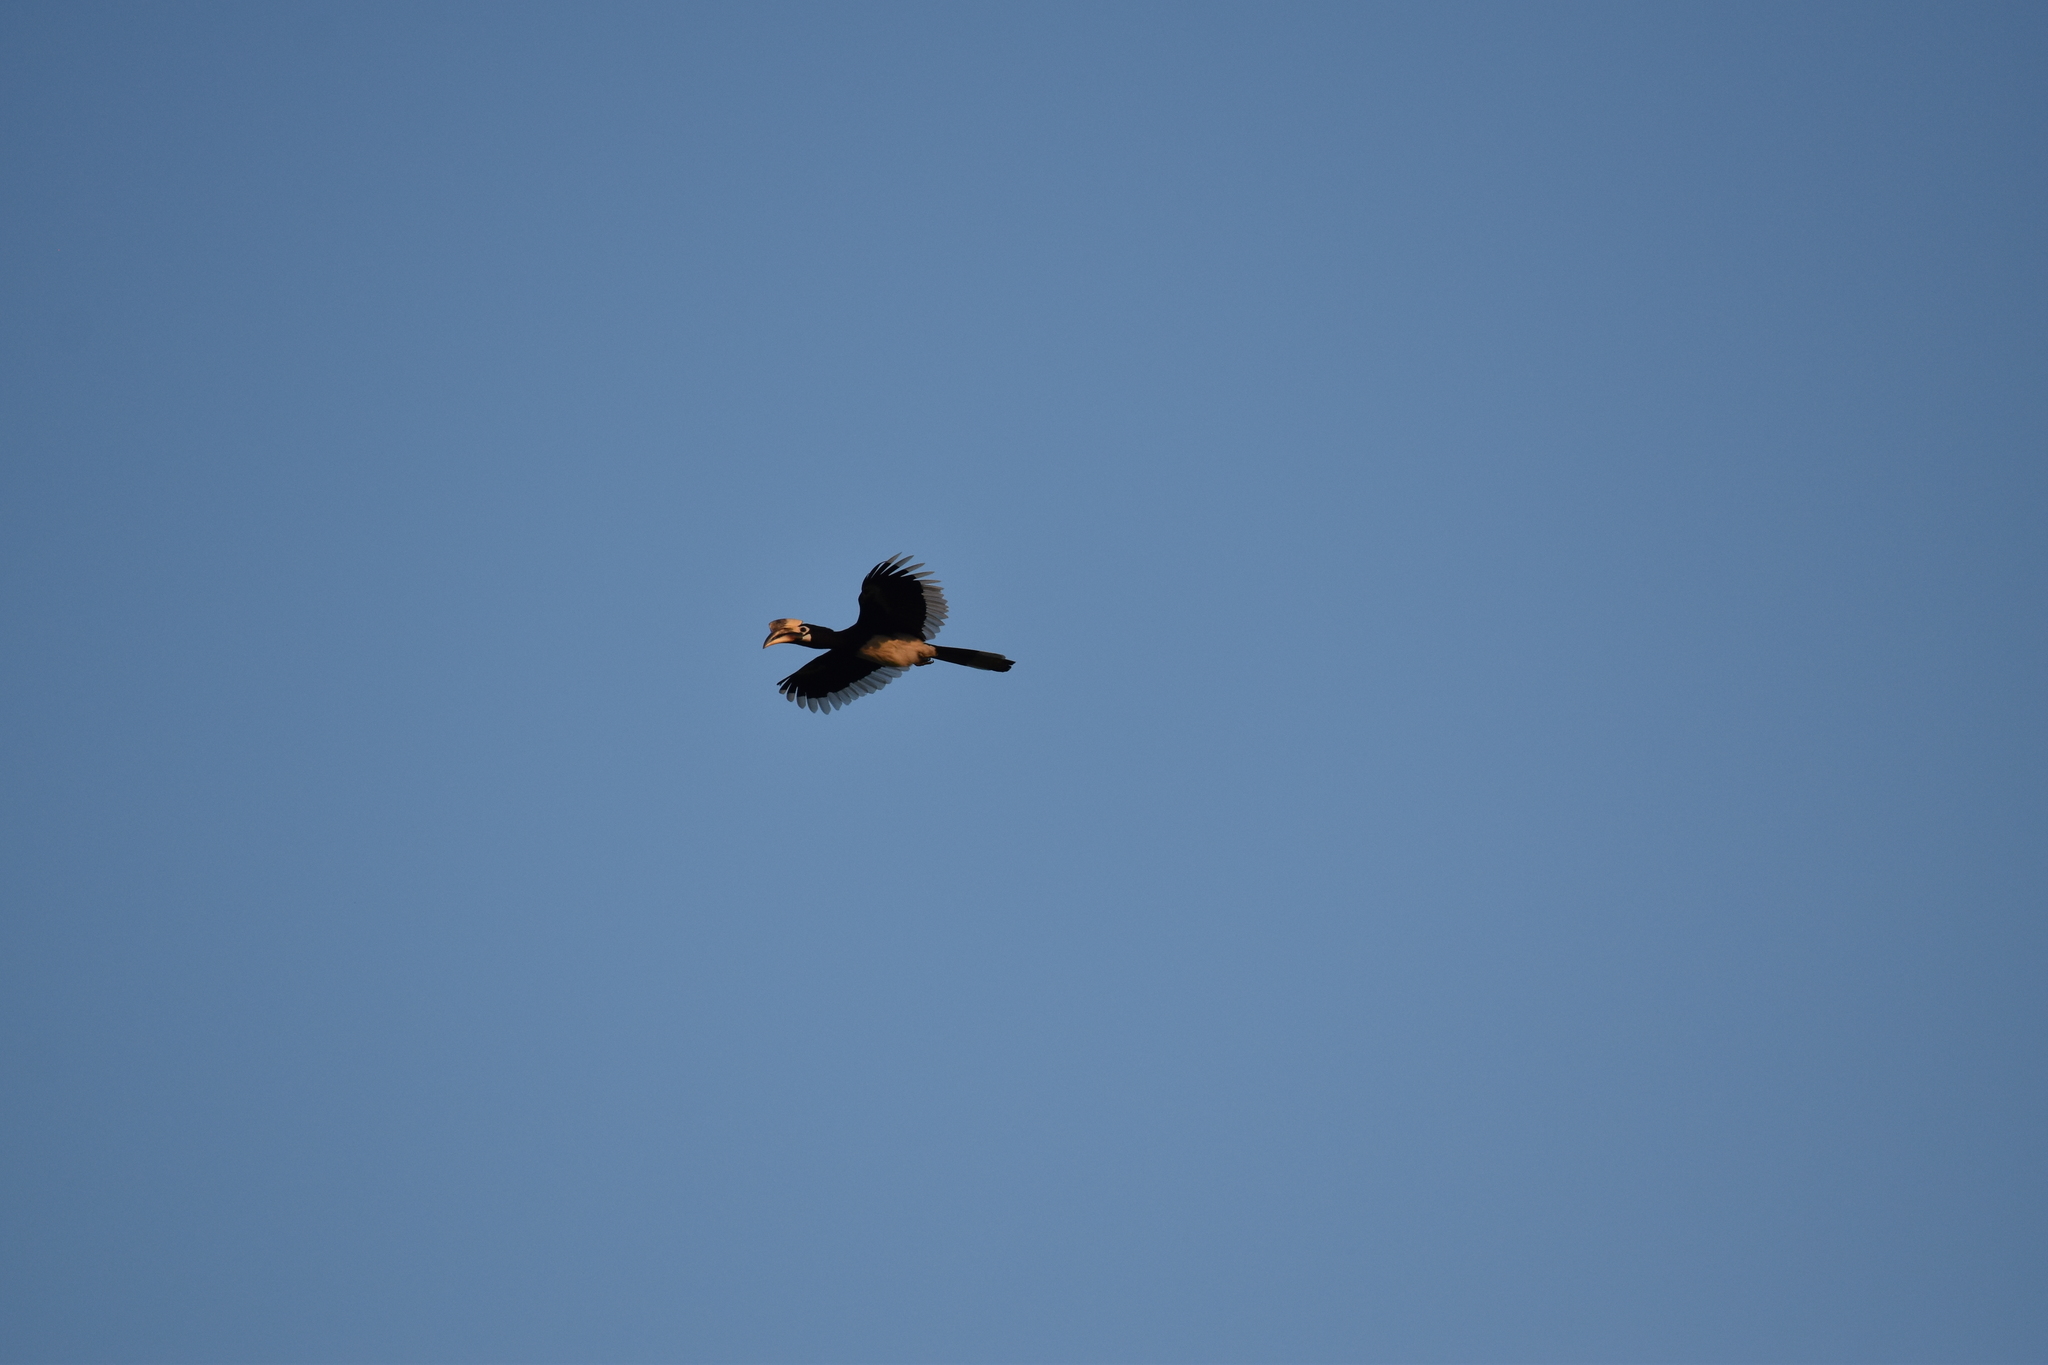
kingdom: Animalia
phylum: Chordata
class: Aves
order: Bucerotiformes
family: Bucerotidae
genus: Anthracoceros
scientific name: Anthracoceros albirostris
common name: Oriental pied-hornbill
